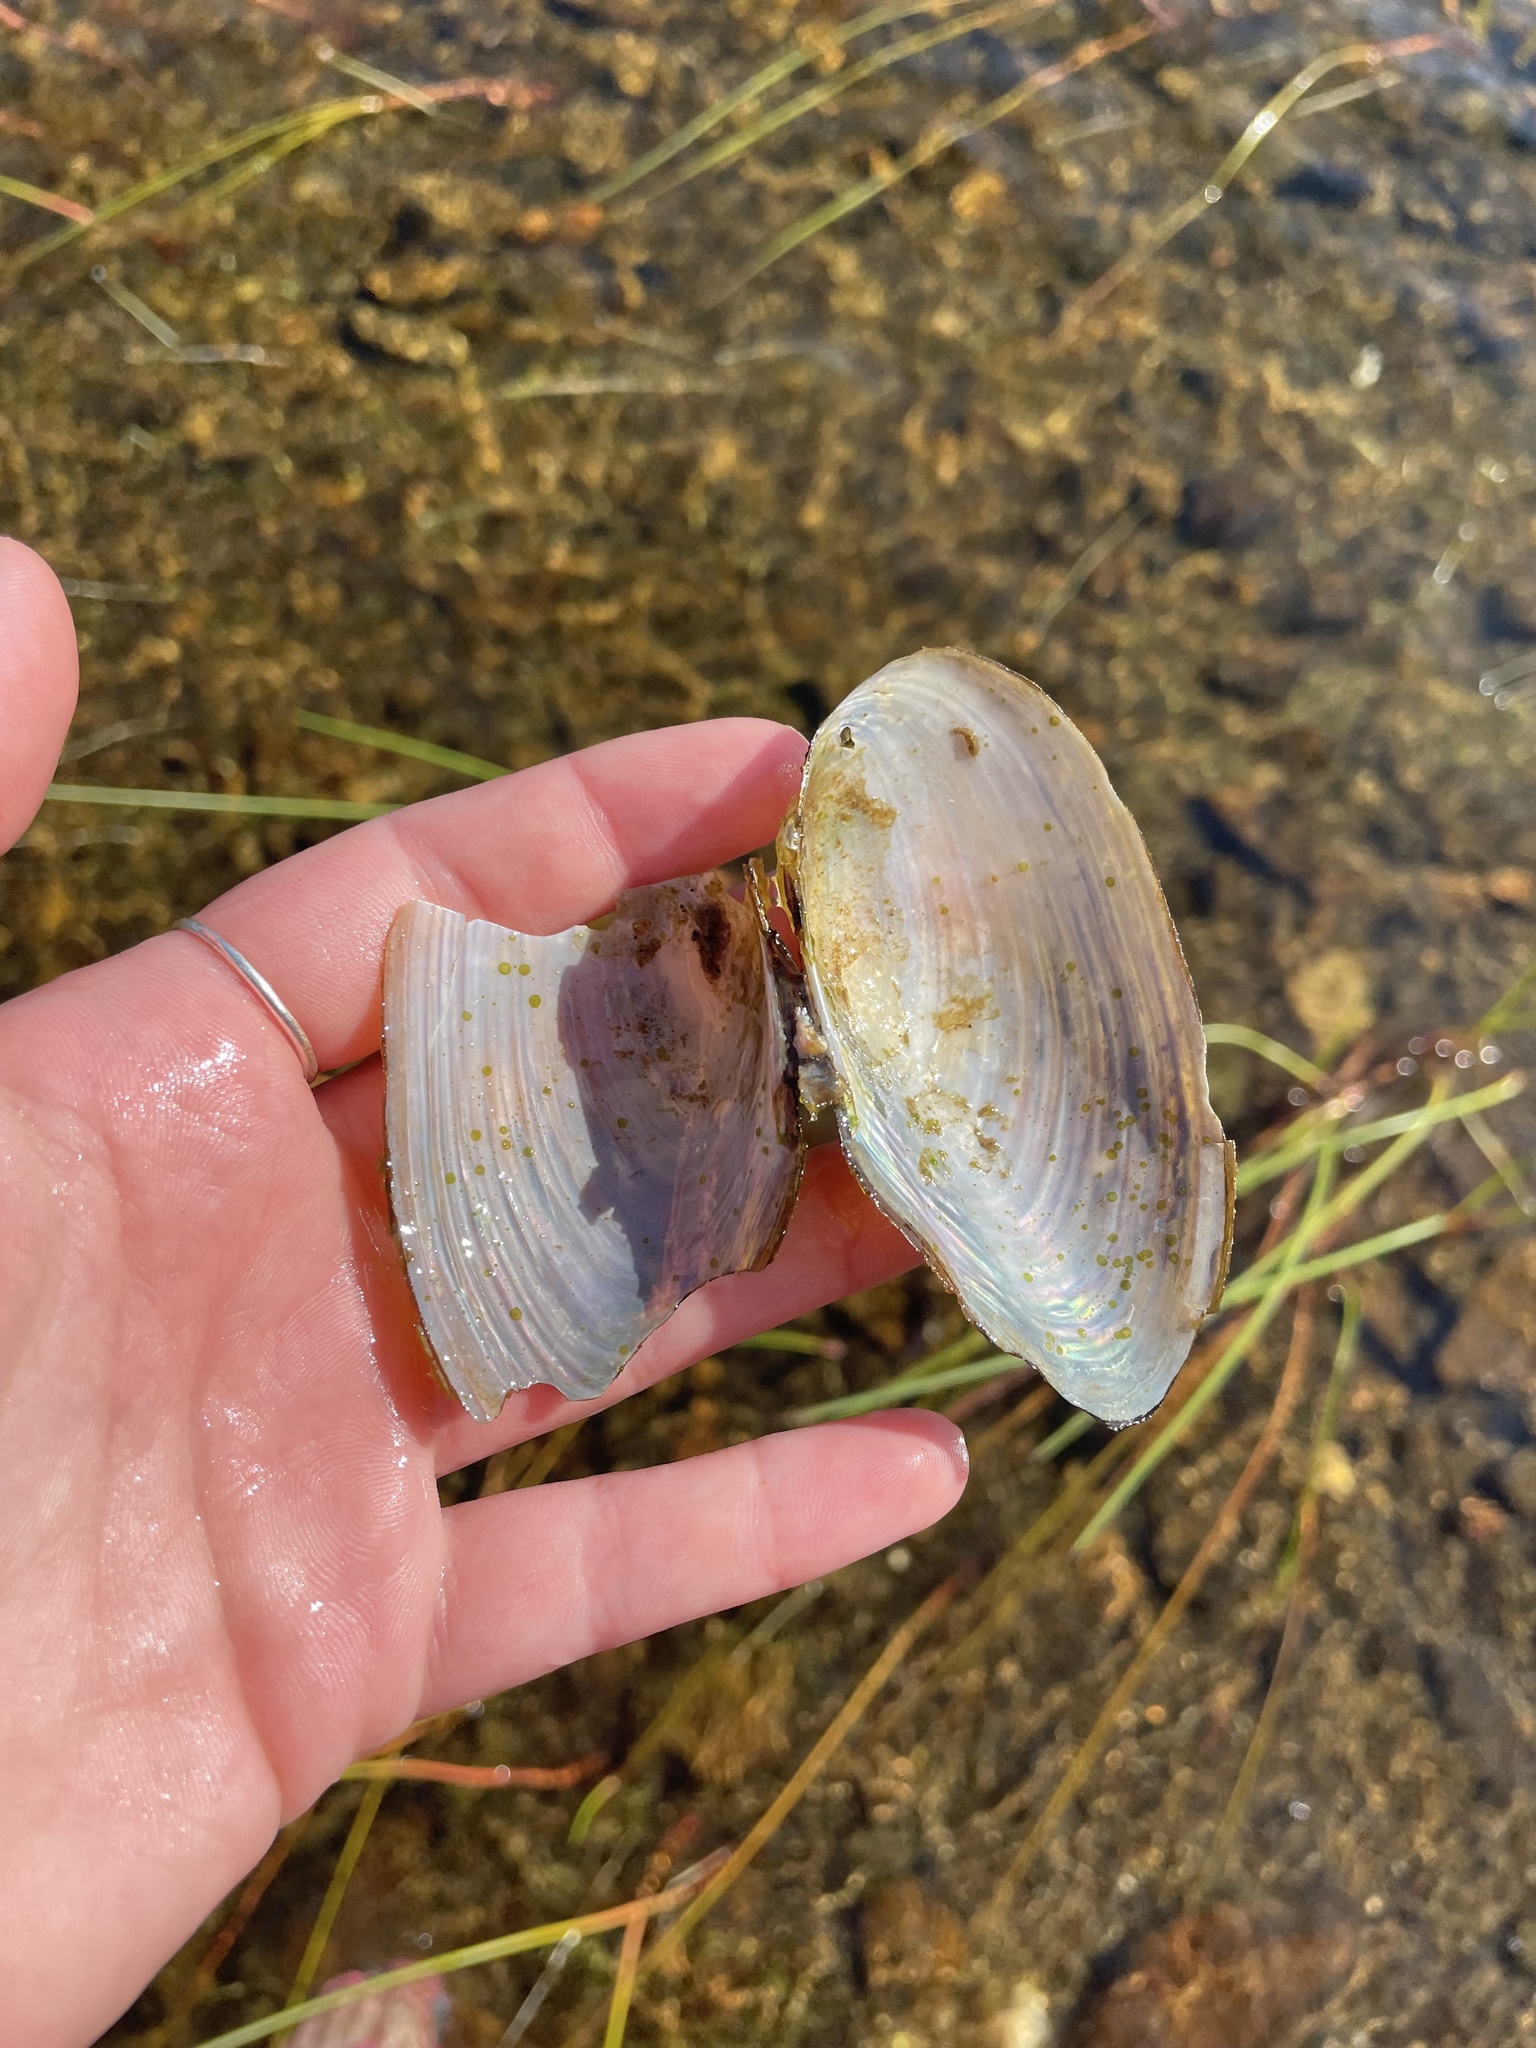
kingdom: Animalia
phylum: Mollusca
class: Bivalvia
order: Unionida
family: Unionidae
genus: Pyganodon
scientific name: Pyganodon cataracta
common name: Eastern floater
